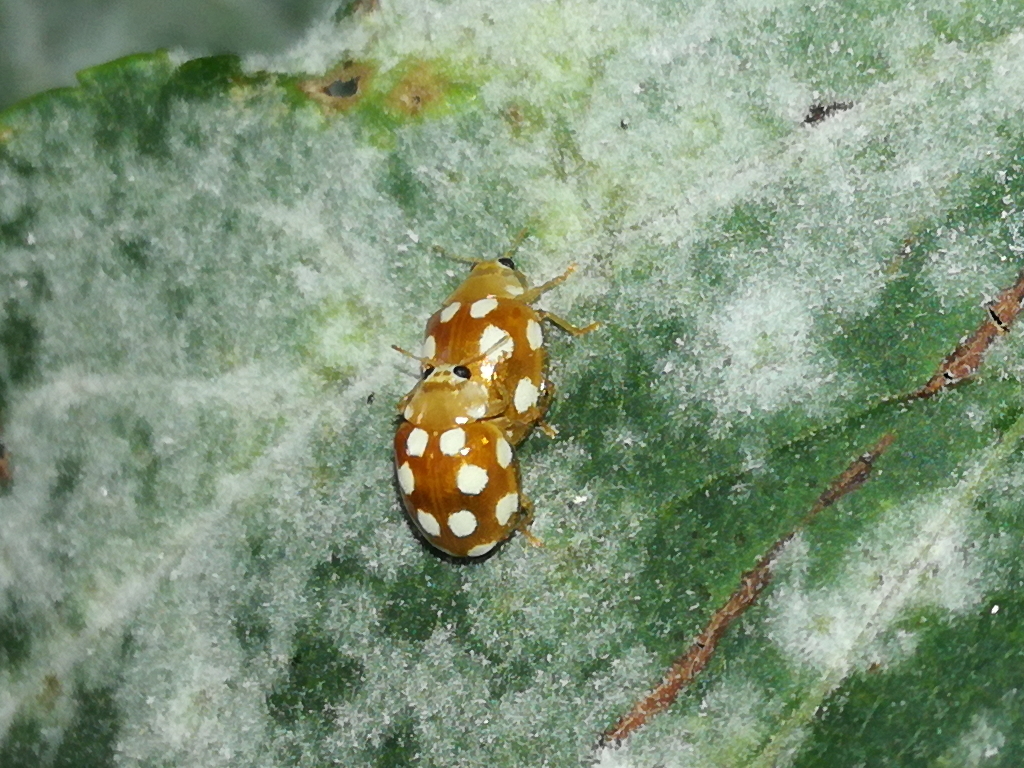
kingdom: Animalia
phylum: Arthropoda
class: Insecta
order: Coleoptera
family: Coccinellidae
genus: Vibidia
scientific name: Vibidia duodecimguttata
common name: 12-spot ladybird
